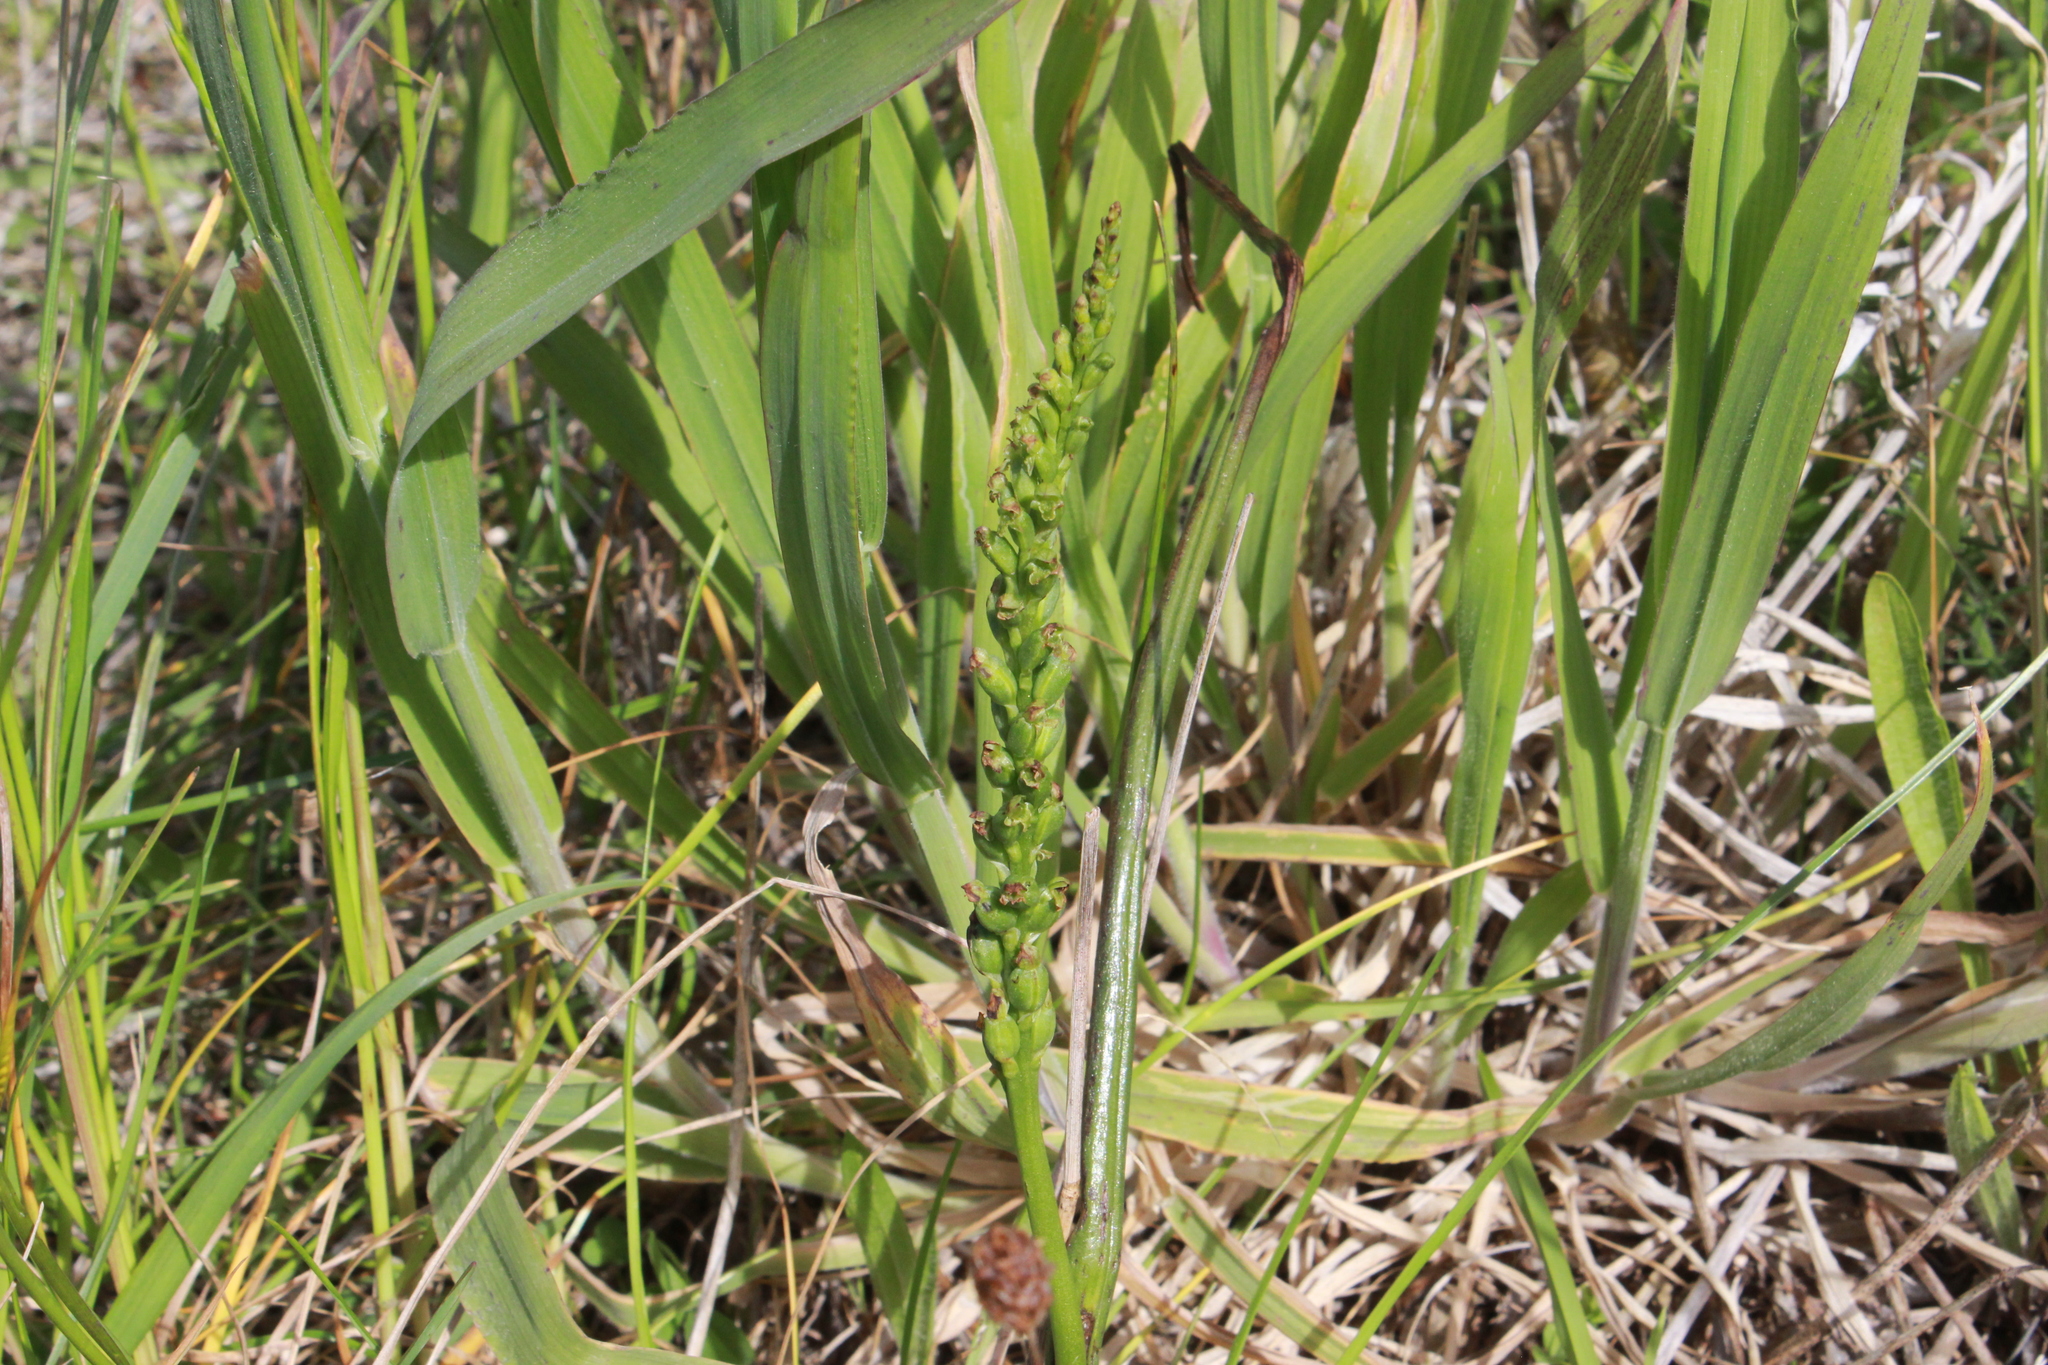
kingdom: Plantae
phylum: Tracheophyta
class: Liliopsida
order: Asparagales
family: Orchidaceae
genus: Microtis
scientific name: Microtis unifolia
